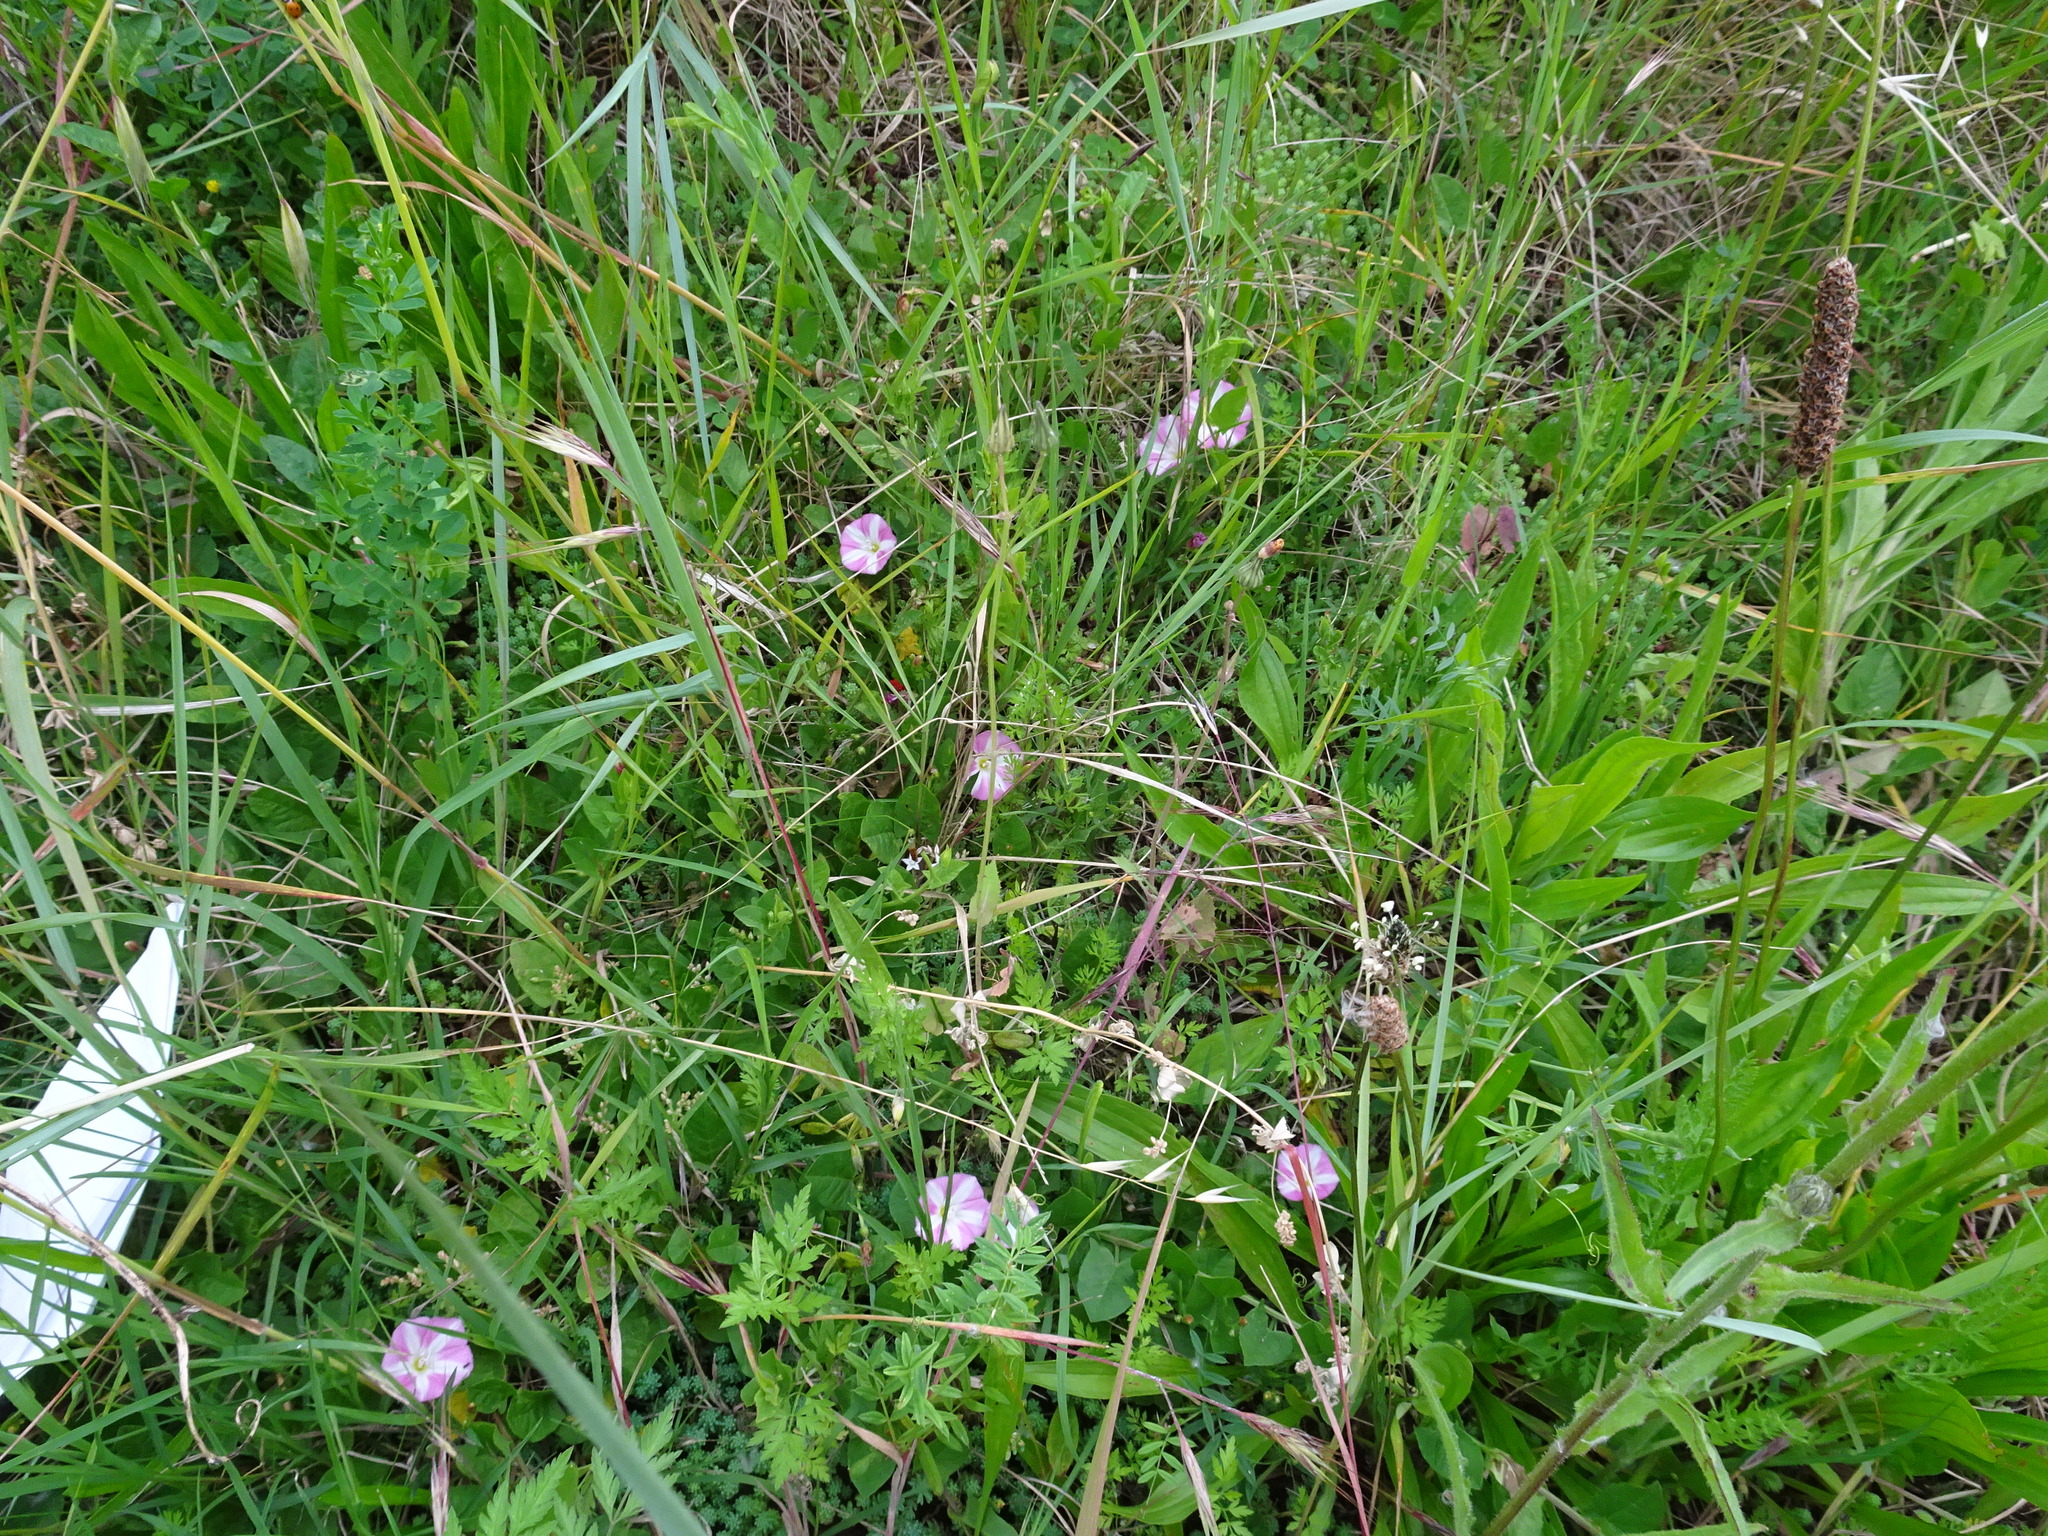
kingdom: Plantae
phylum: Tracheophyta
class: Magnoliopsida
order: Solanales
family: Convolvulaceae
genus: Convolvulus
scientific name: Convolvulus arvensis
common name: Field bindweed
